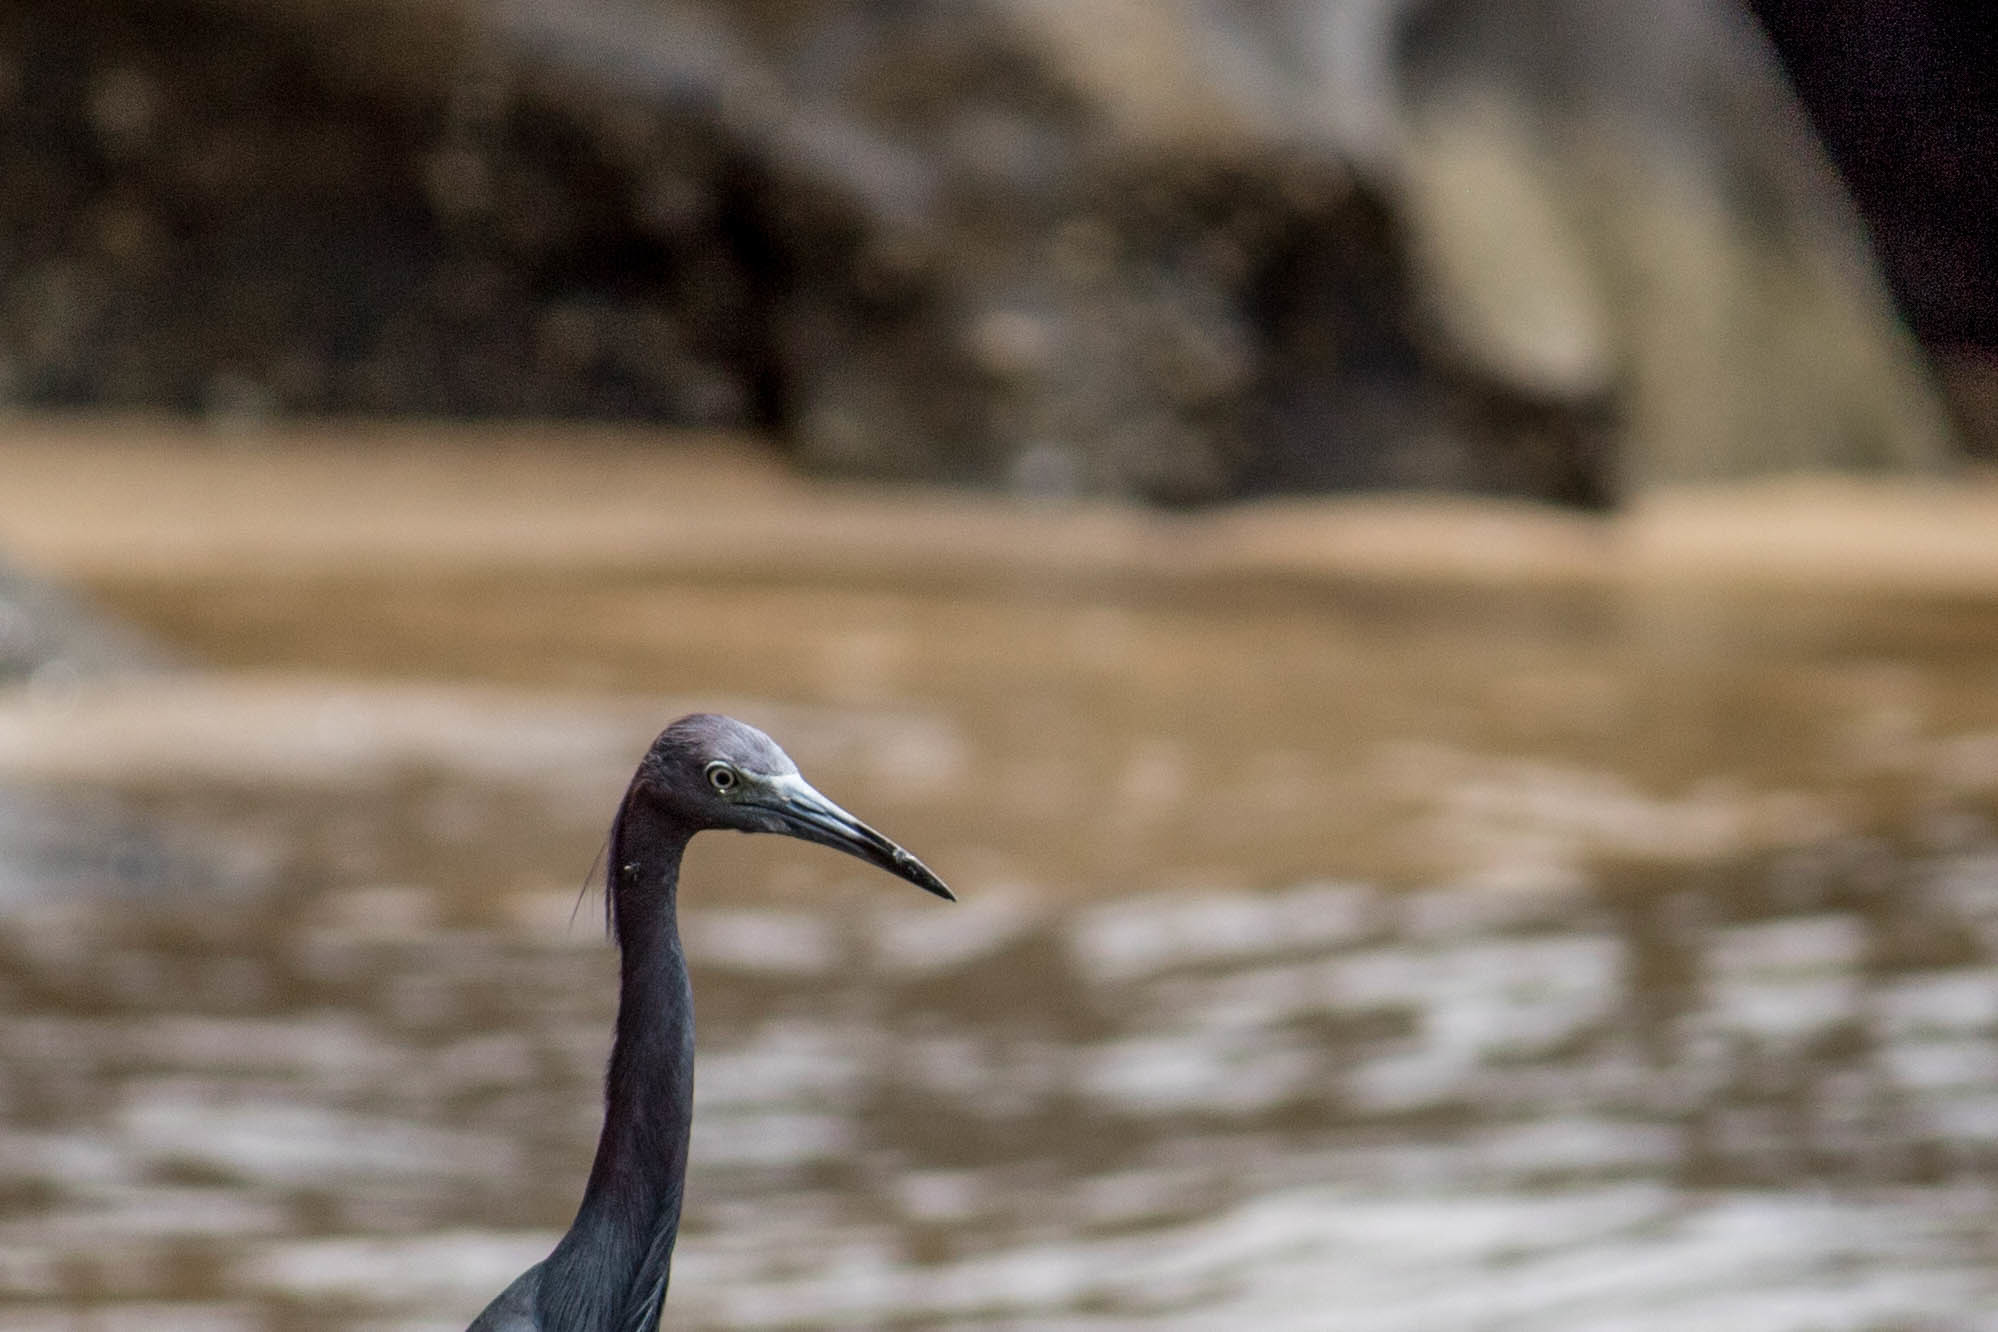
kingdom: Animalia
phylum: Chordata
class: Aves
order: Pelecaniformes
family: Ardeidae
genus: Egretta
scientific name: Egretta caerulea
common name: Little blue heron
